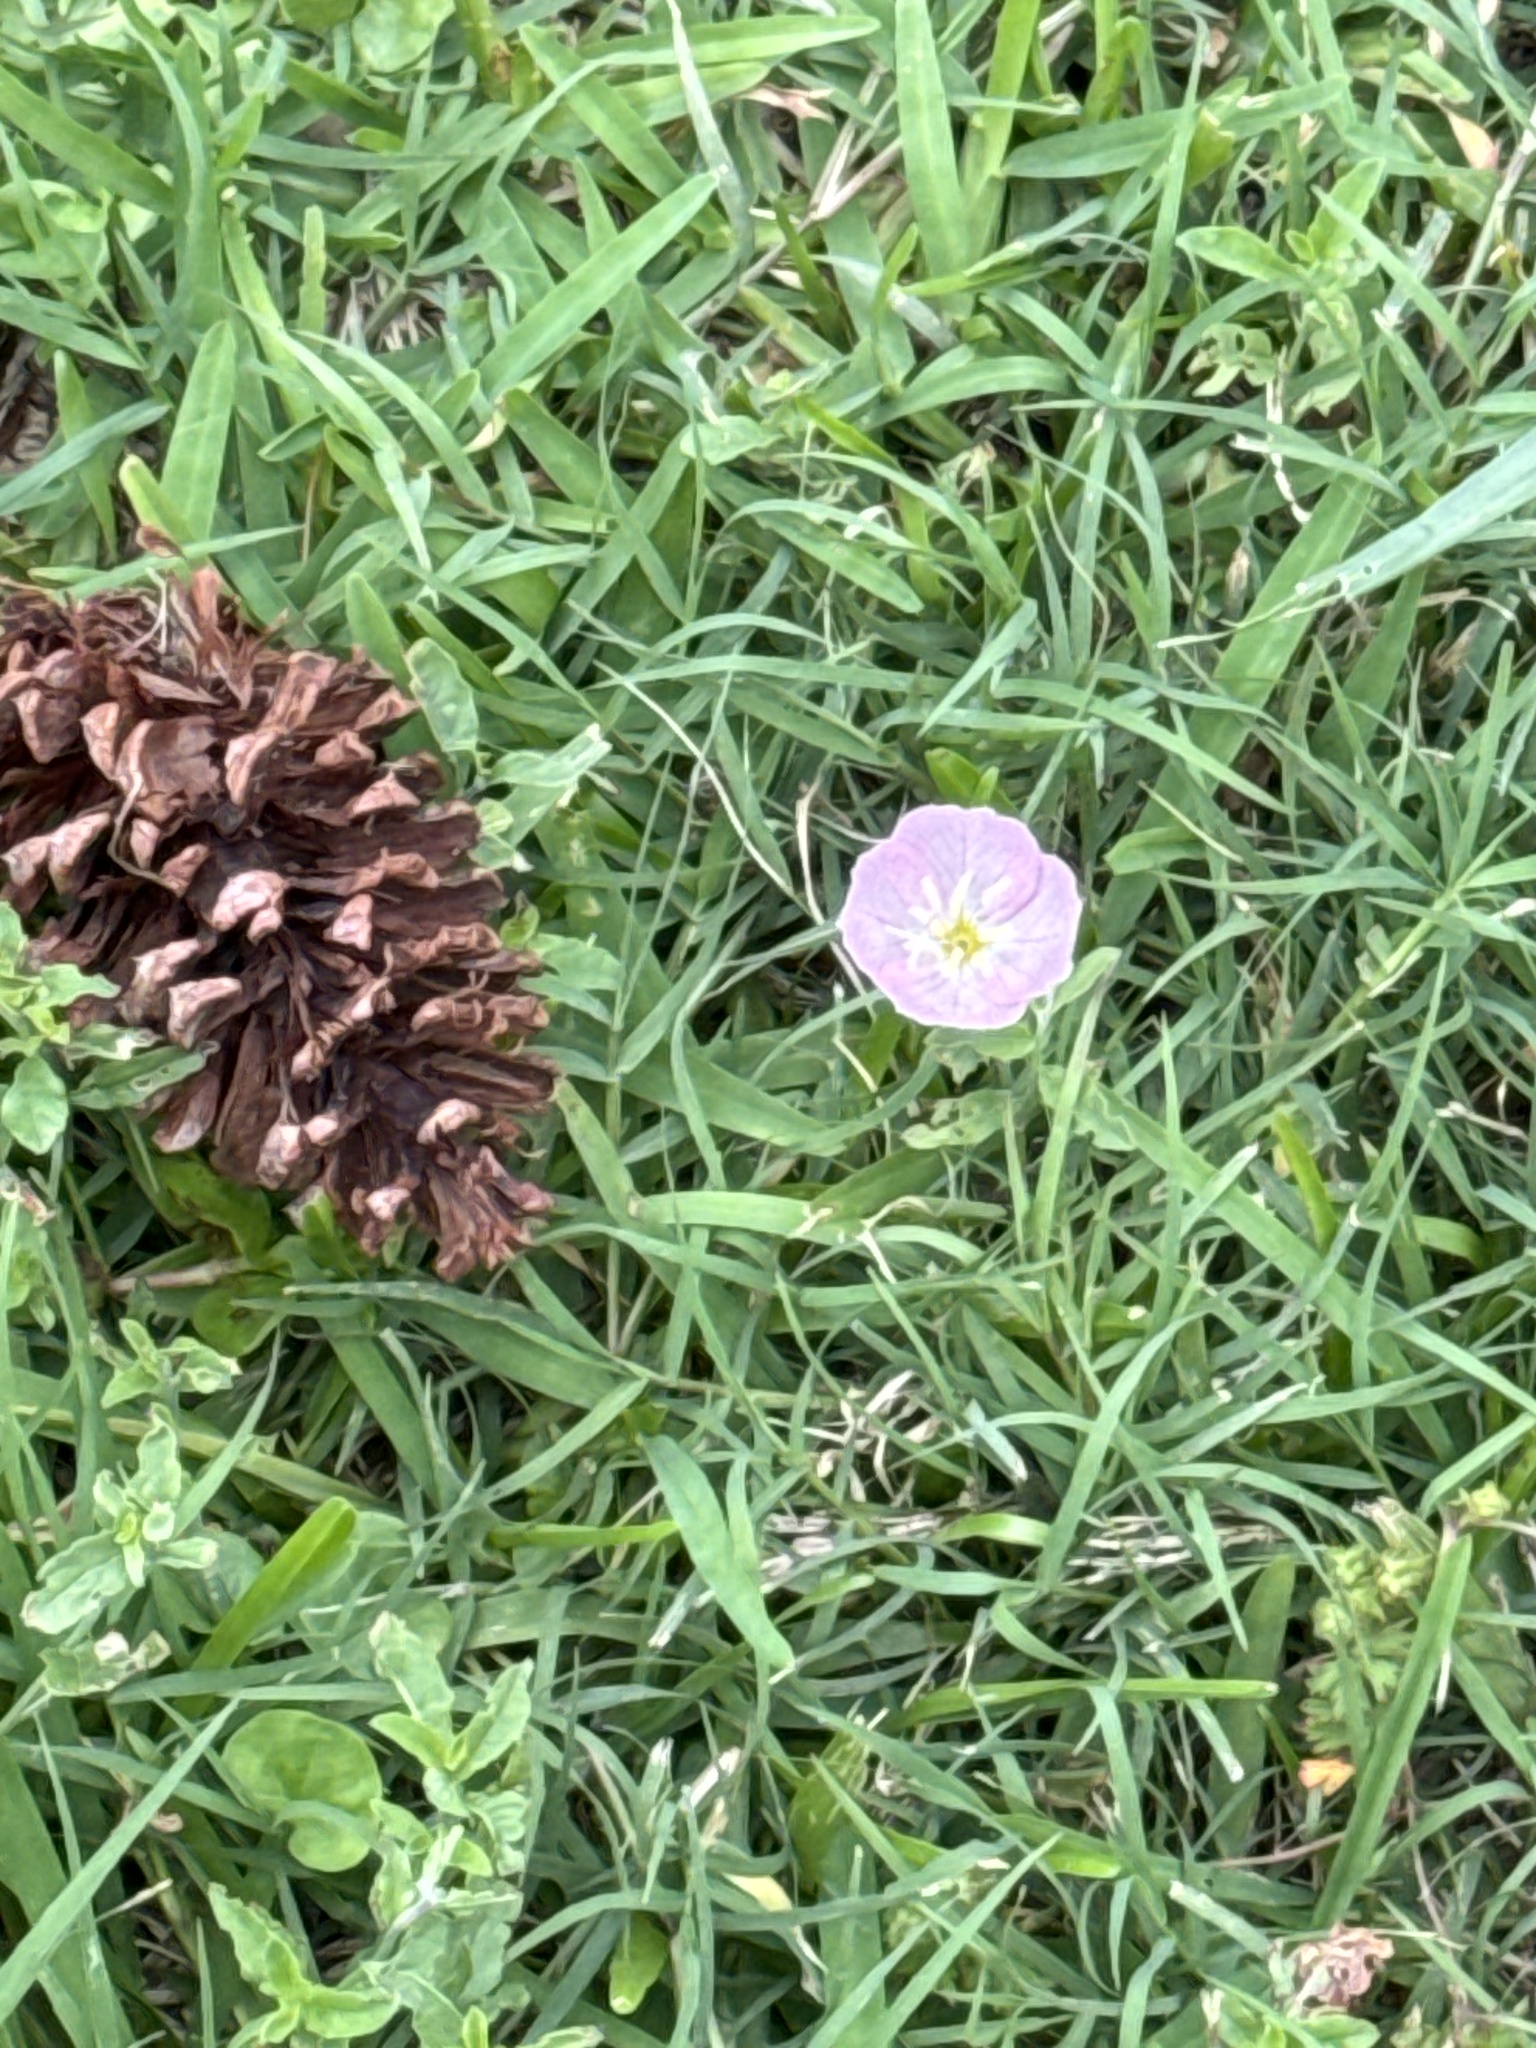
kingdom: Plantae
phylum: Tracheophyta
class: Magnoliopsida
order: Myrtales
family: Onagraceae
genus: Oenothera
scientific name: Oenothera speciosa
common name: White evening-primrose
